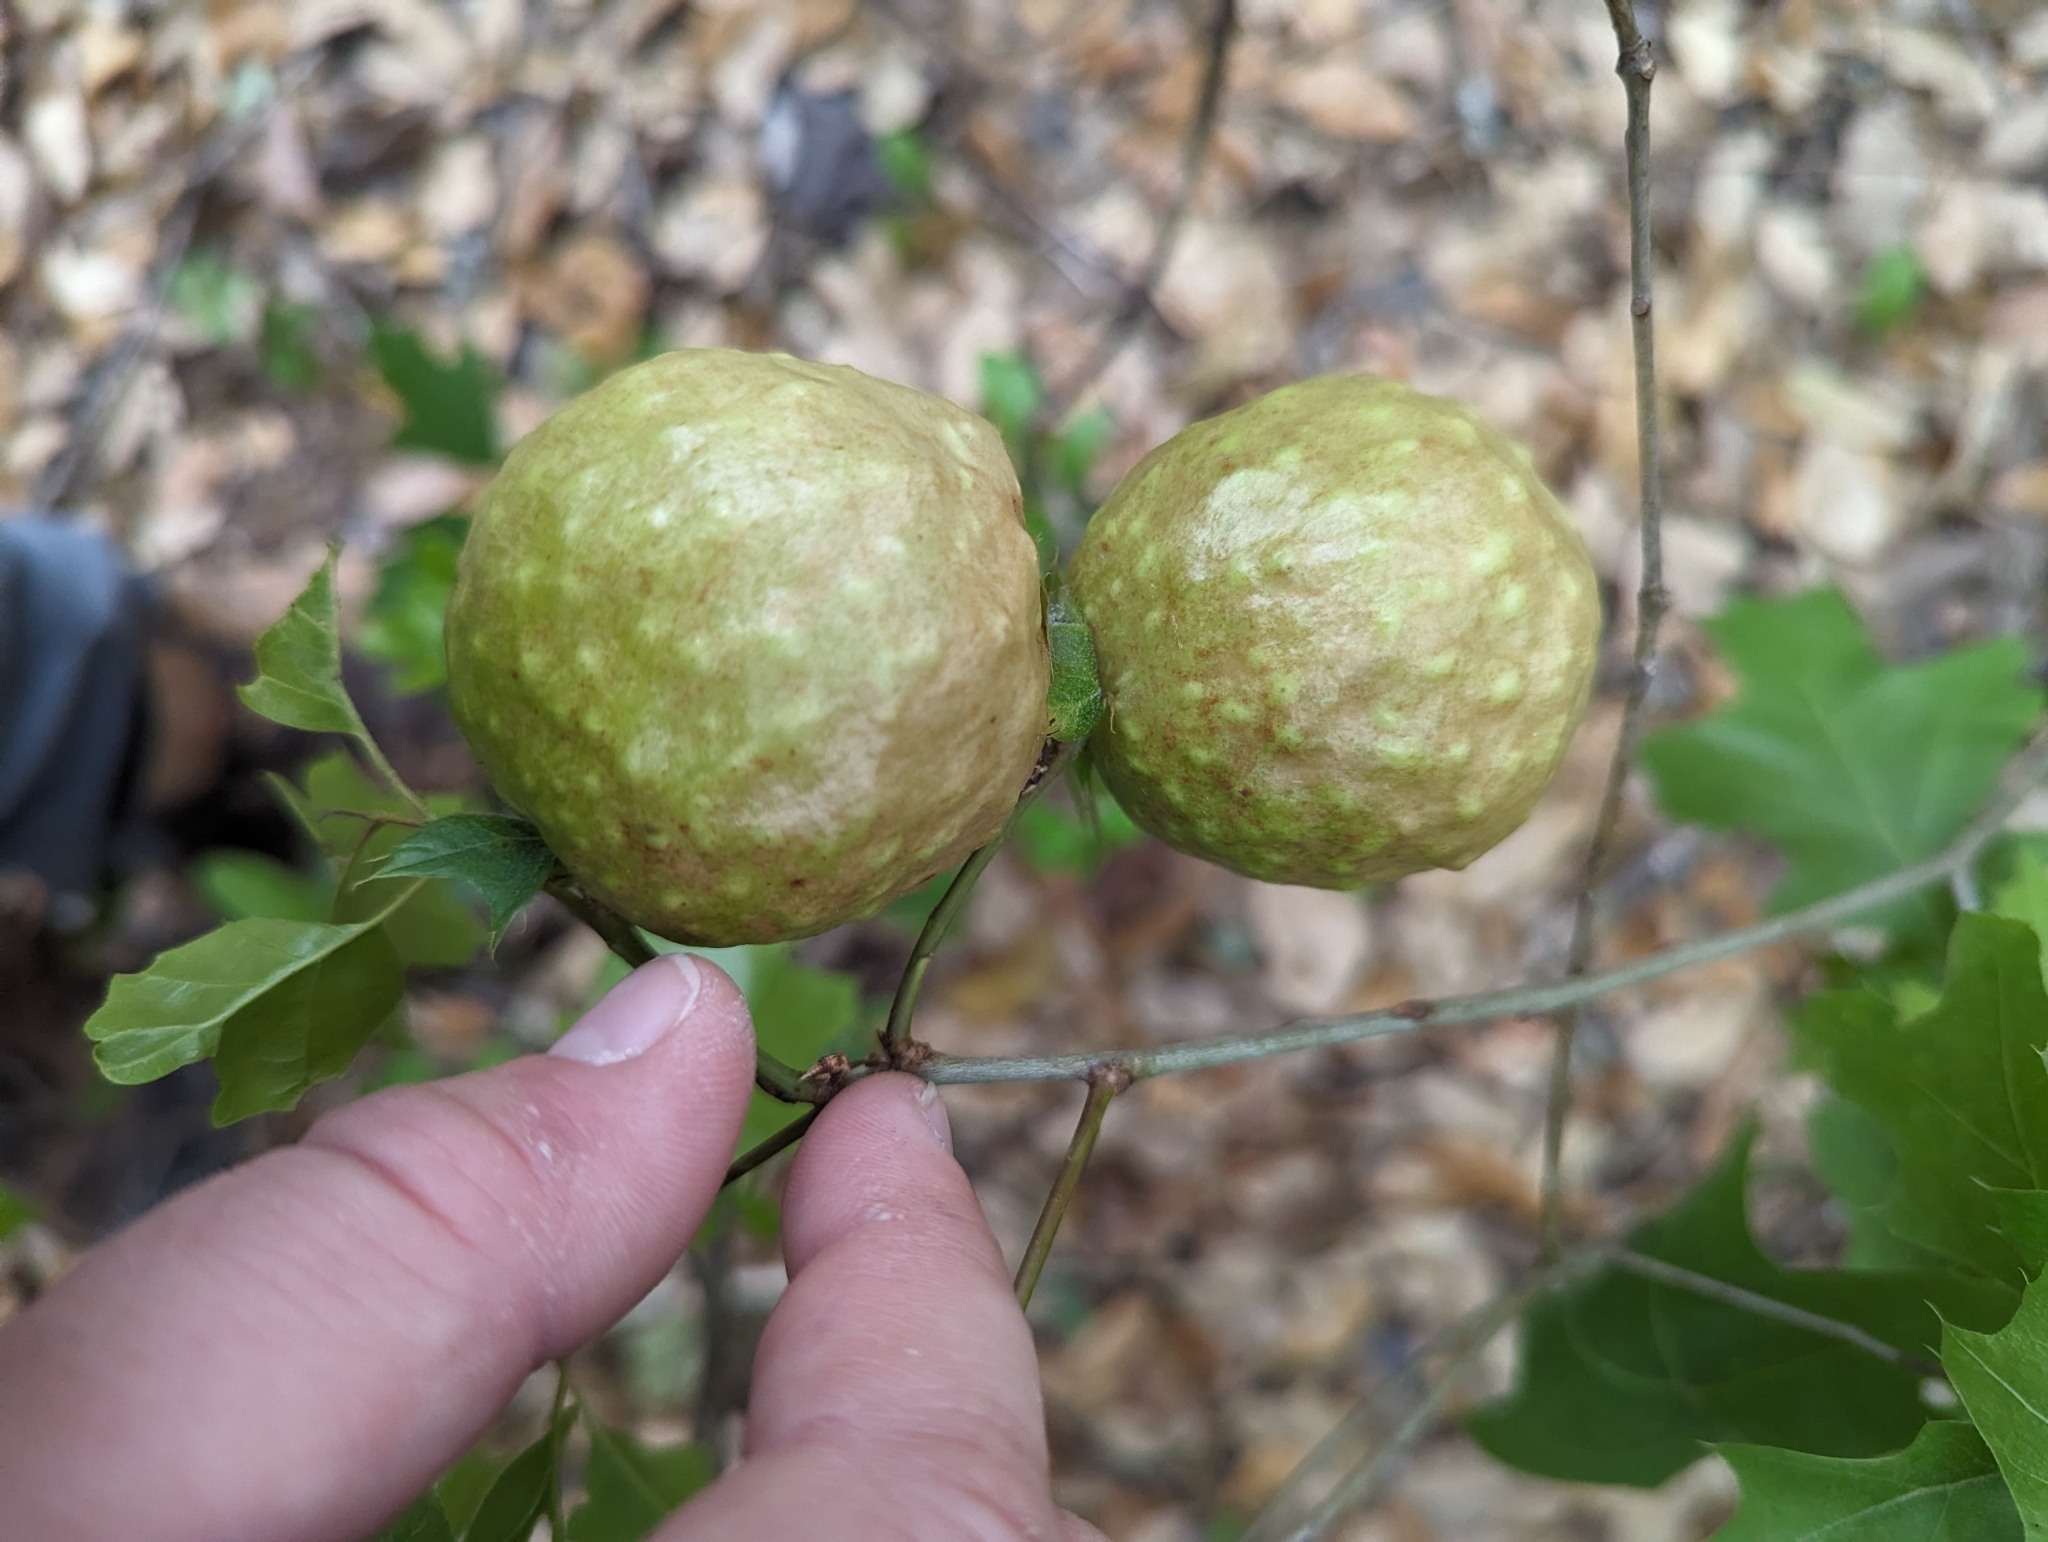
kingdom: Animalia
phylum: Arthropoda
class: Insecta
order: Hymenoptera
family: Cynipidae
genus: Amphibolips
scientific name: Amphibolips
